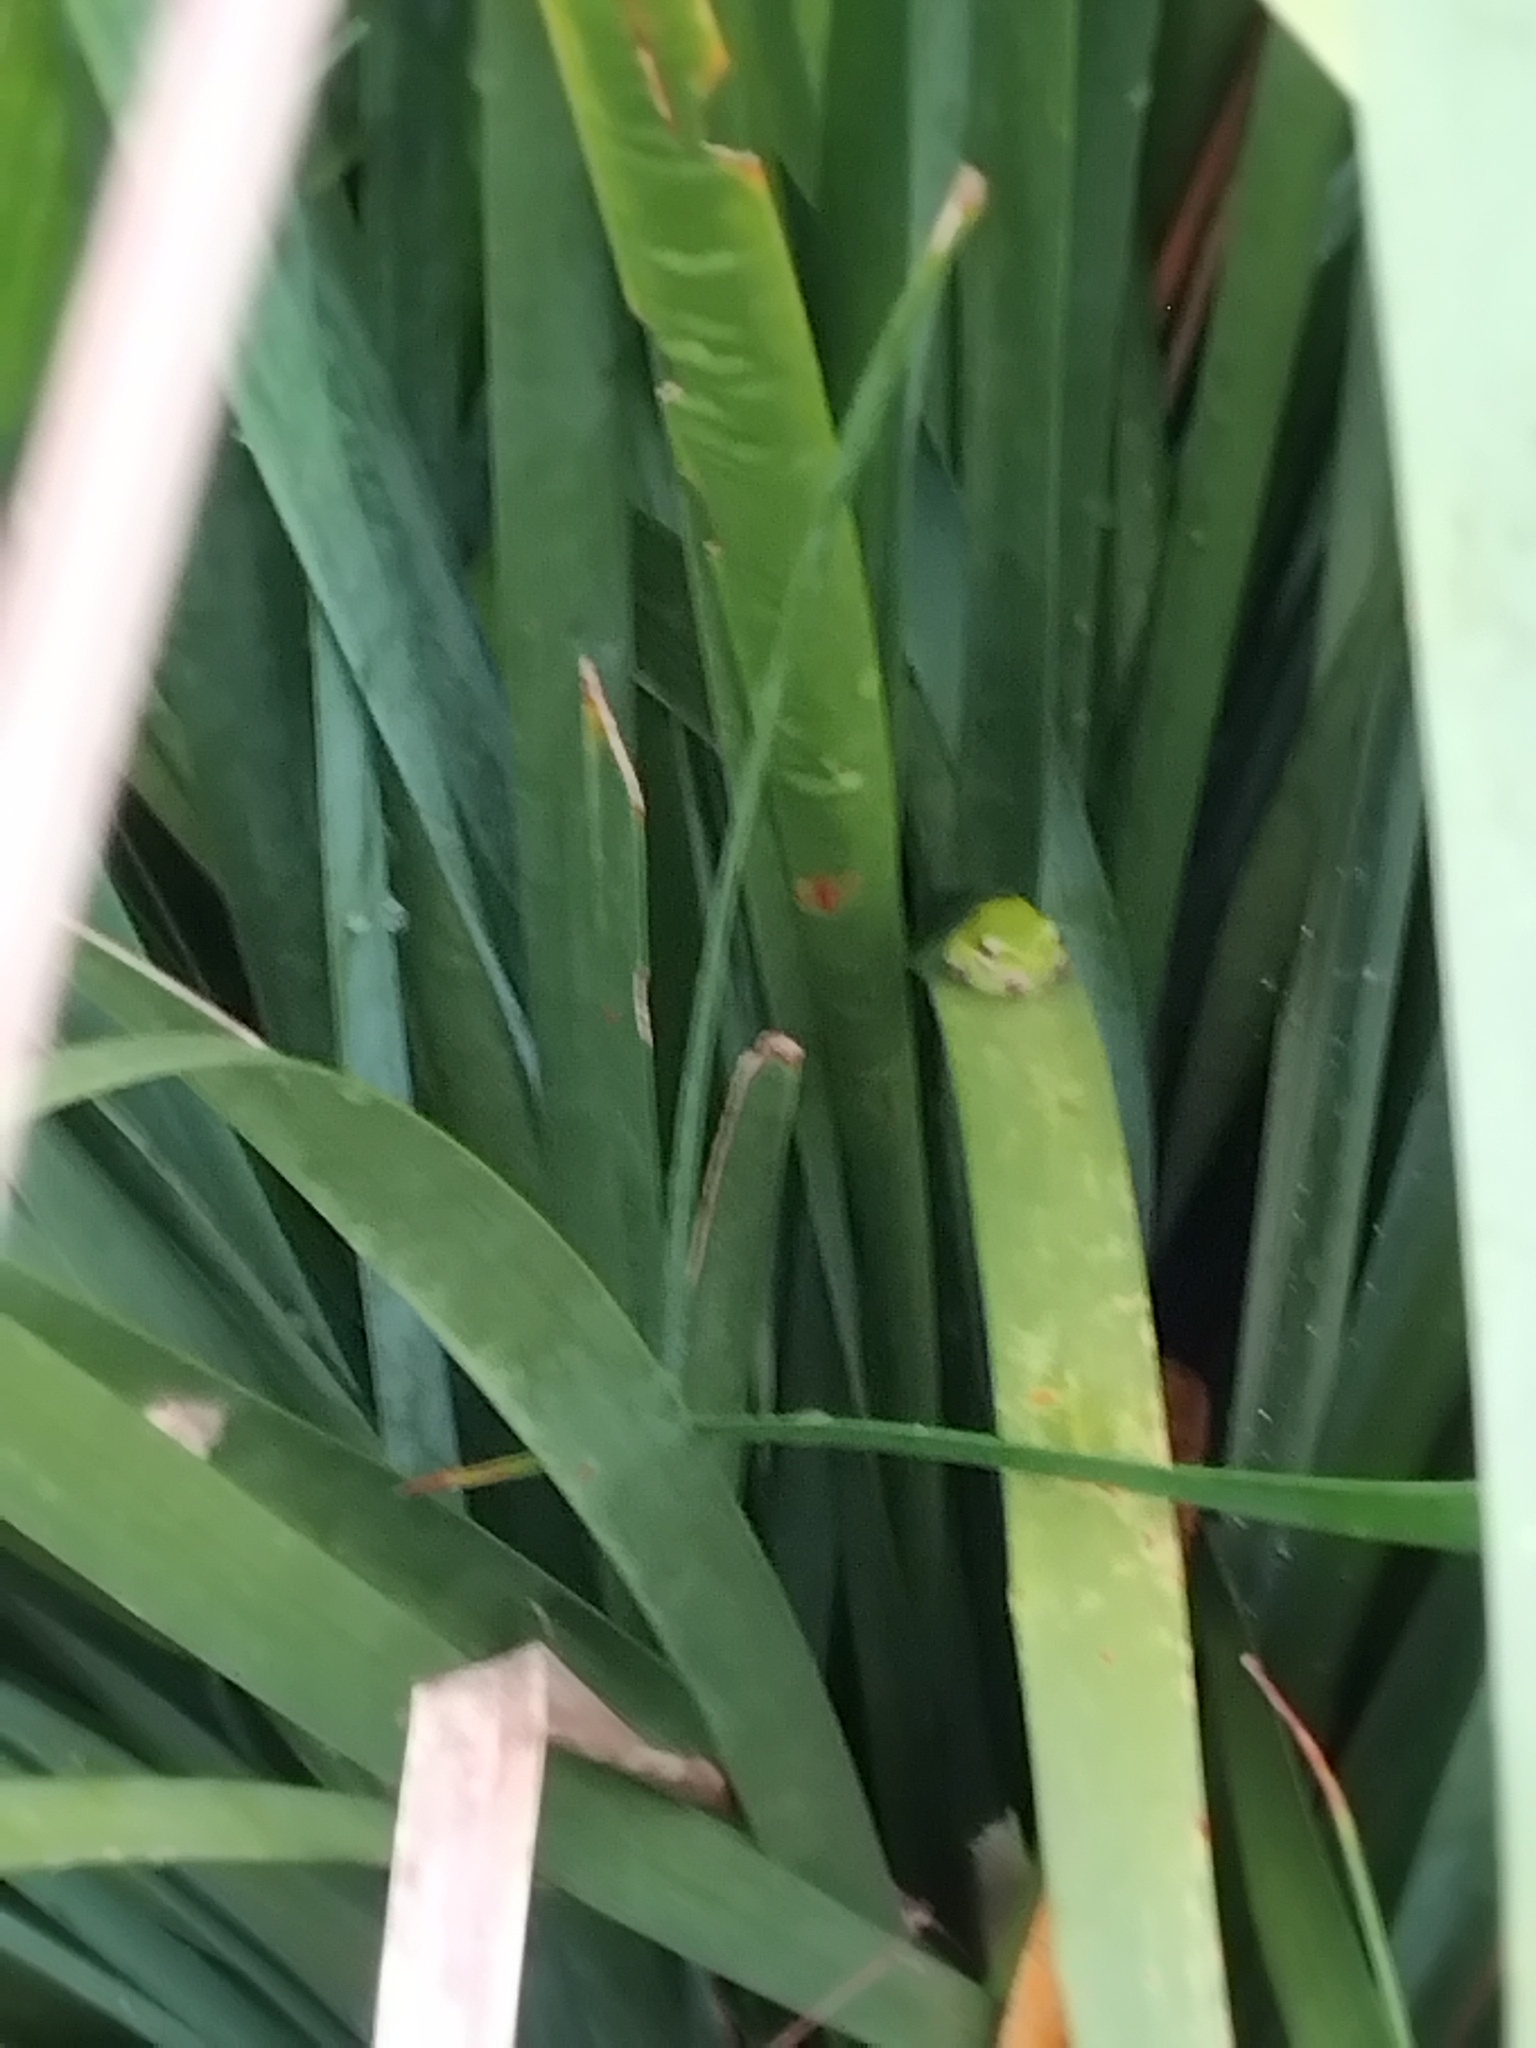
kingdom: Animalia
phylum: Chordata
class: Amphibia
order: Anura
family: Pelodryadidae
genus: Litoria
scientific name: Litoria fallax
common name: Eastern dwarf treefrog
